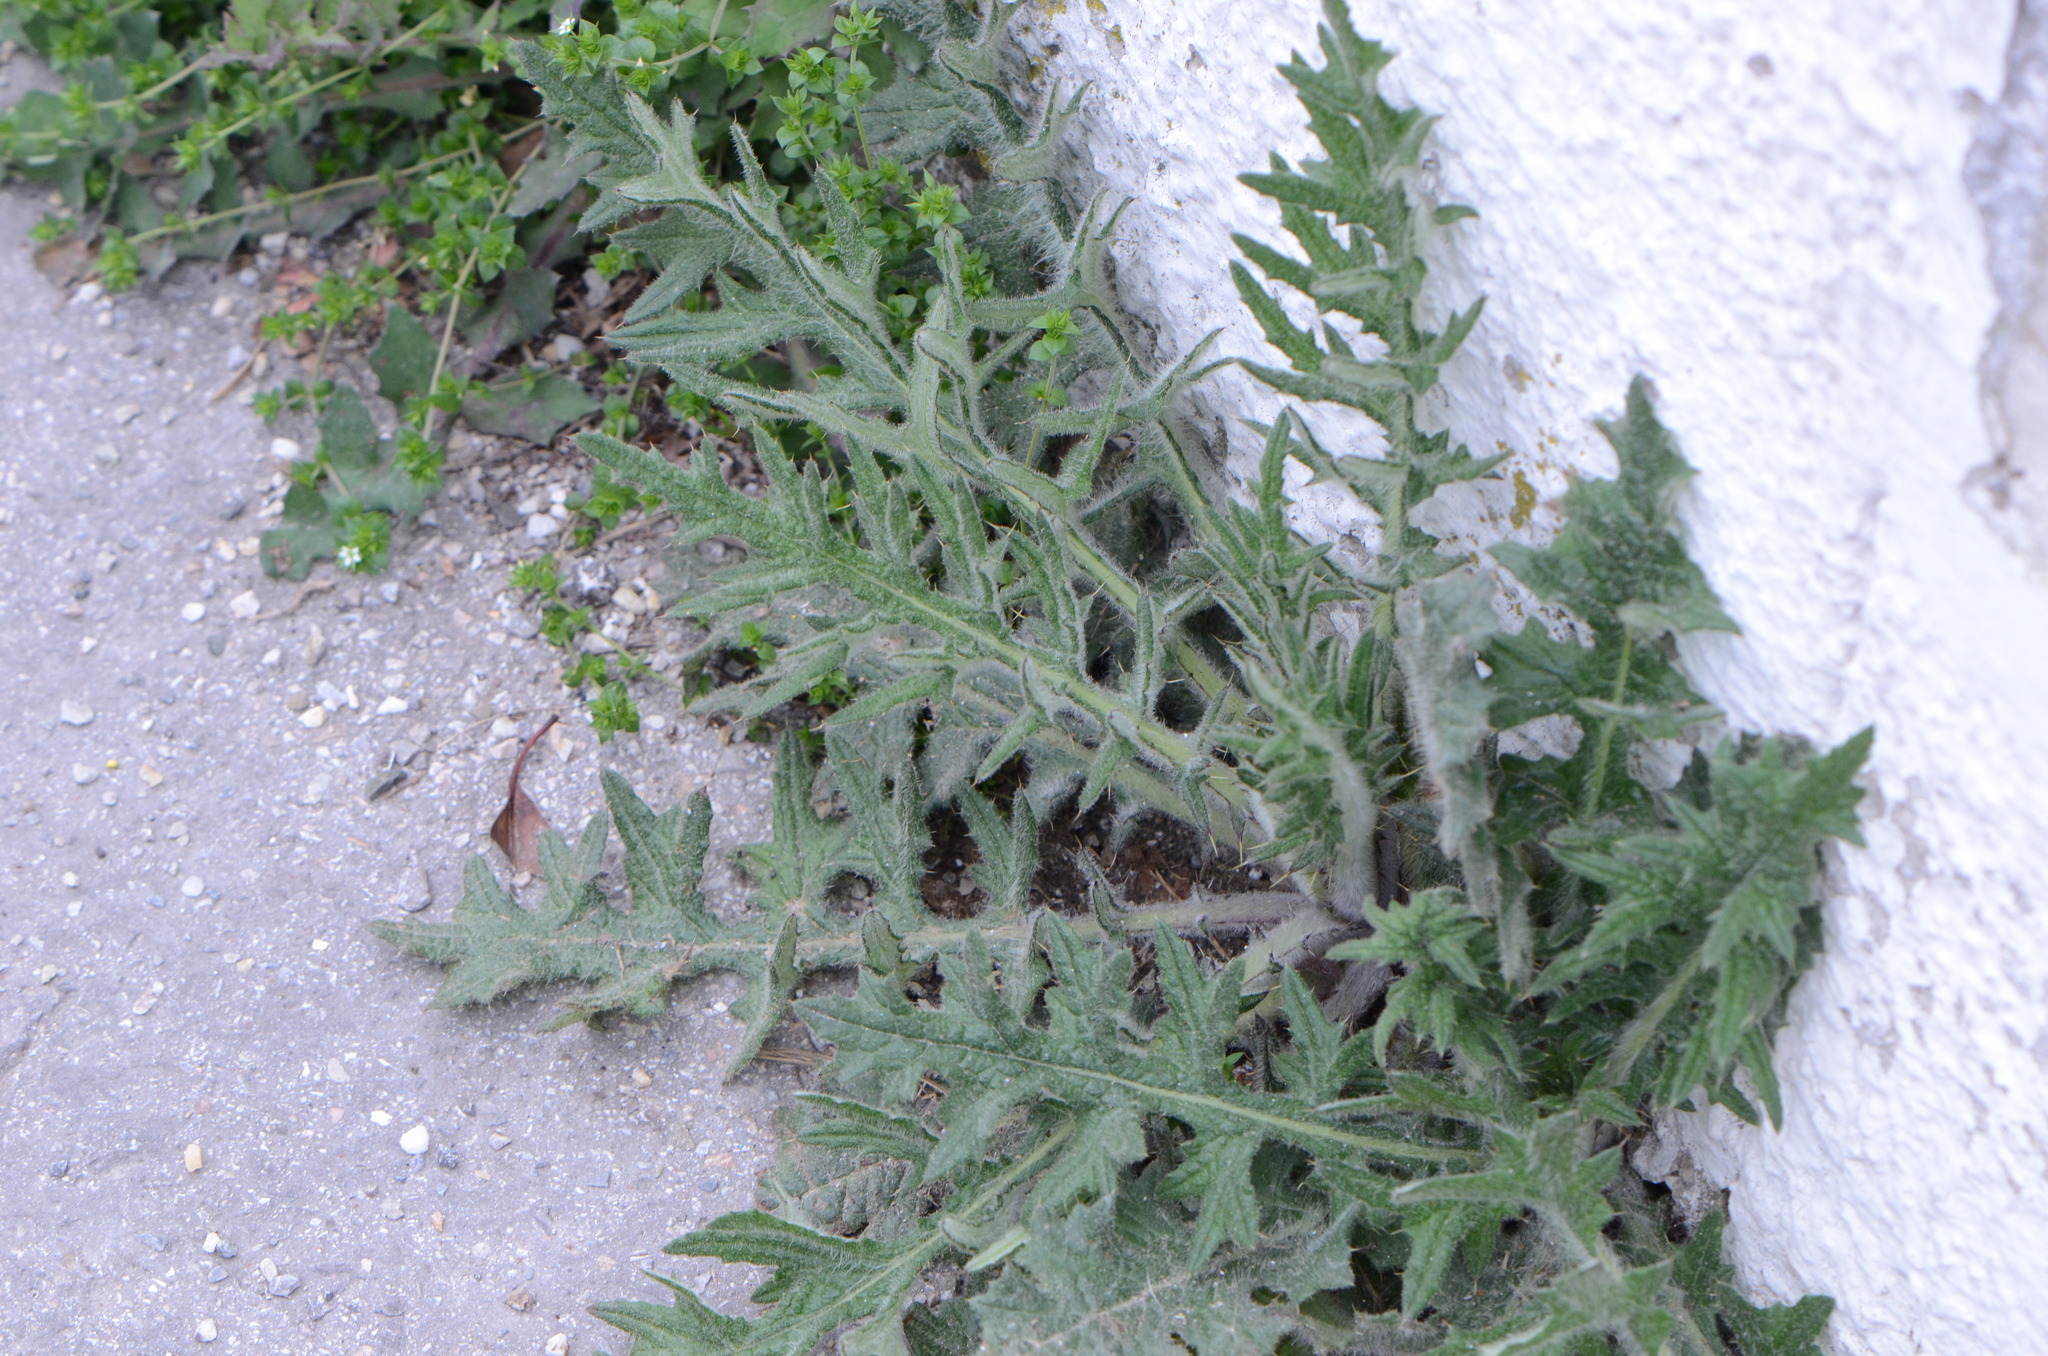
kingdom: Plantae
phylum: Tracheophyta
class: Magnoliopsida
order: Asterales
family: Asteraceae
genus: Cirsium
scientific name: Cirsium vulgare
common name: Bull thistle
